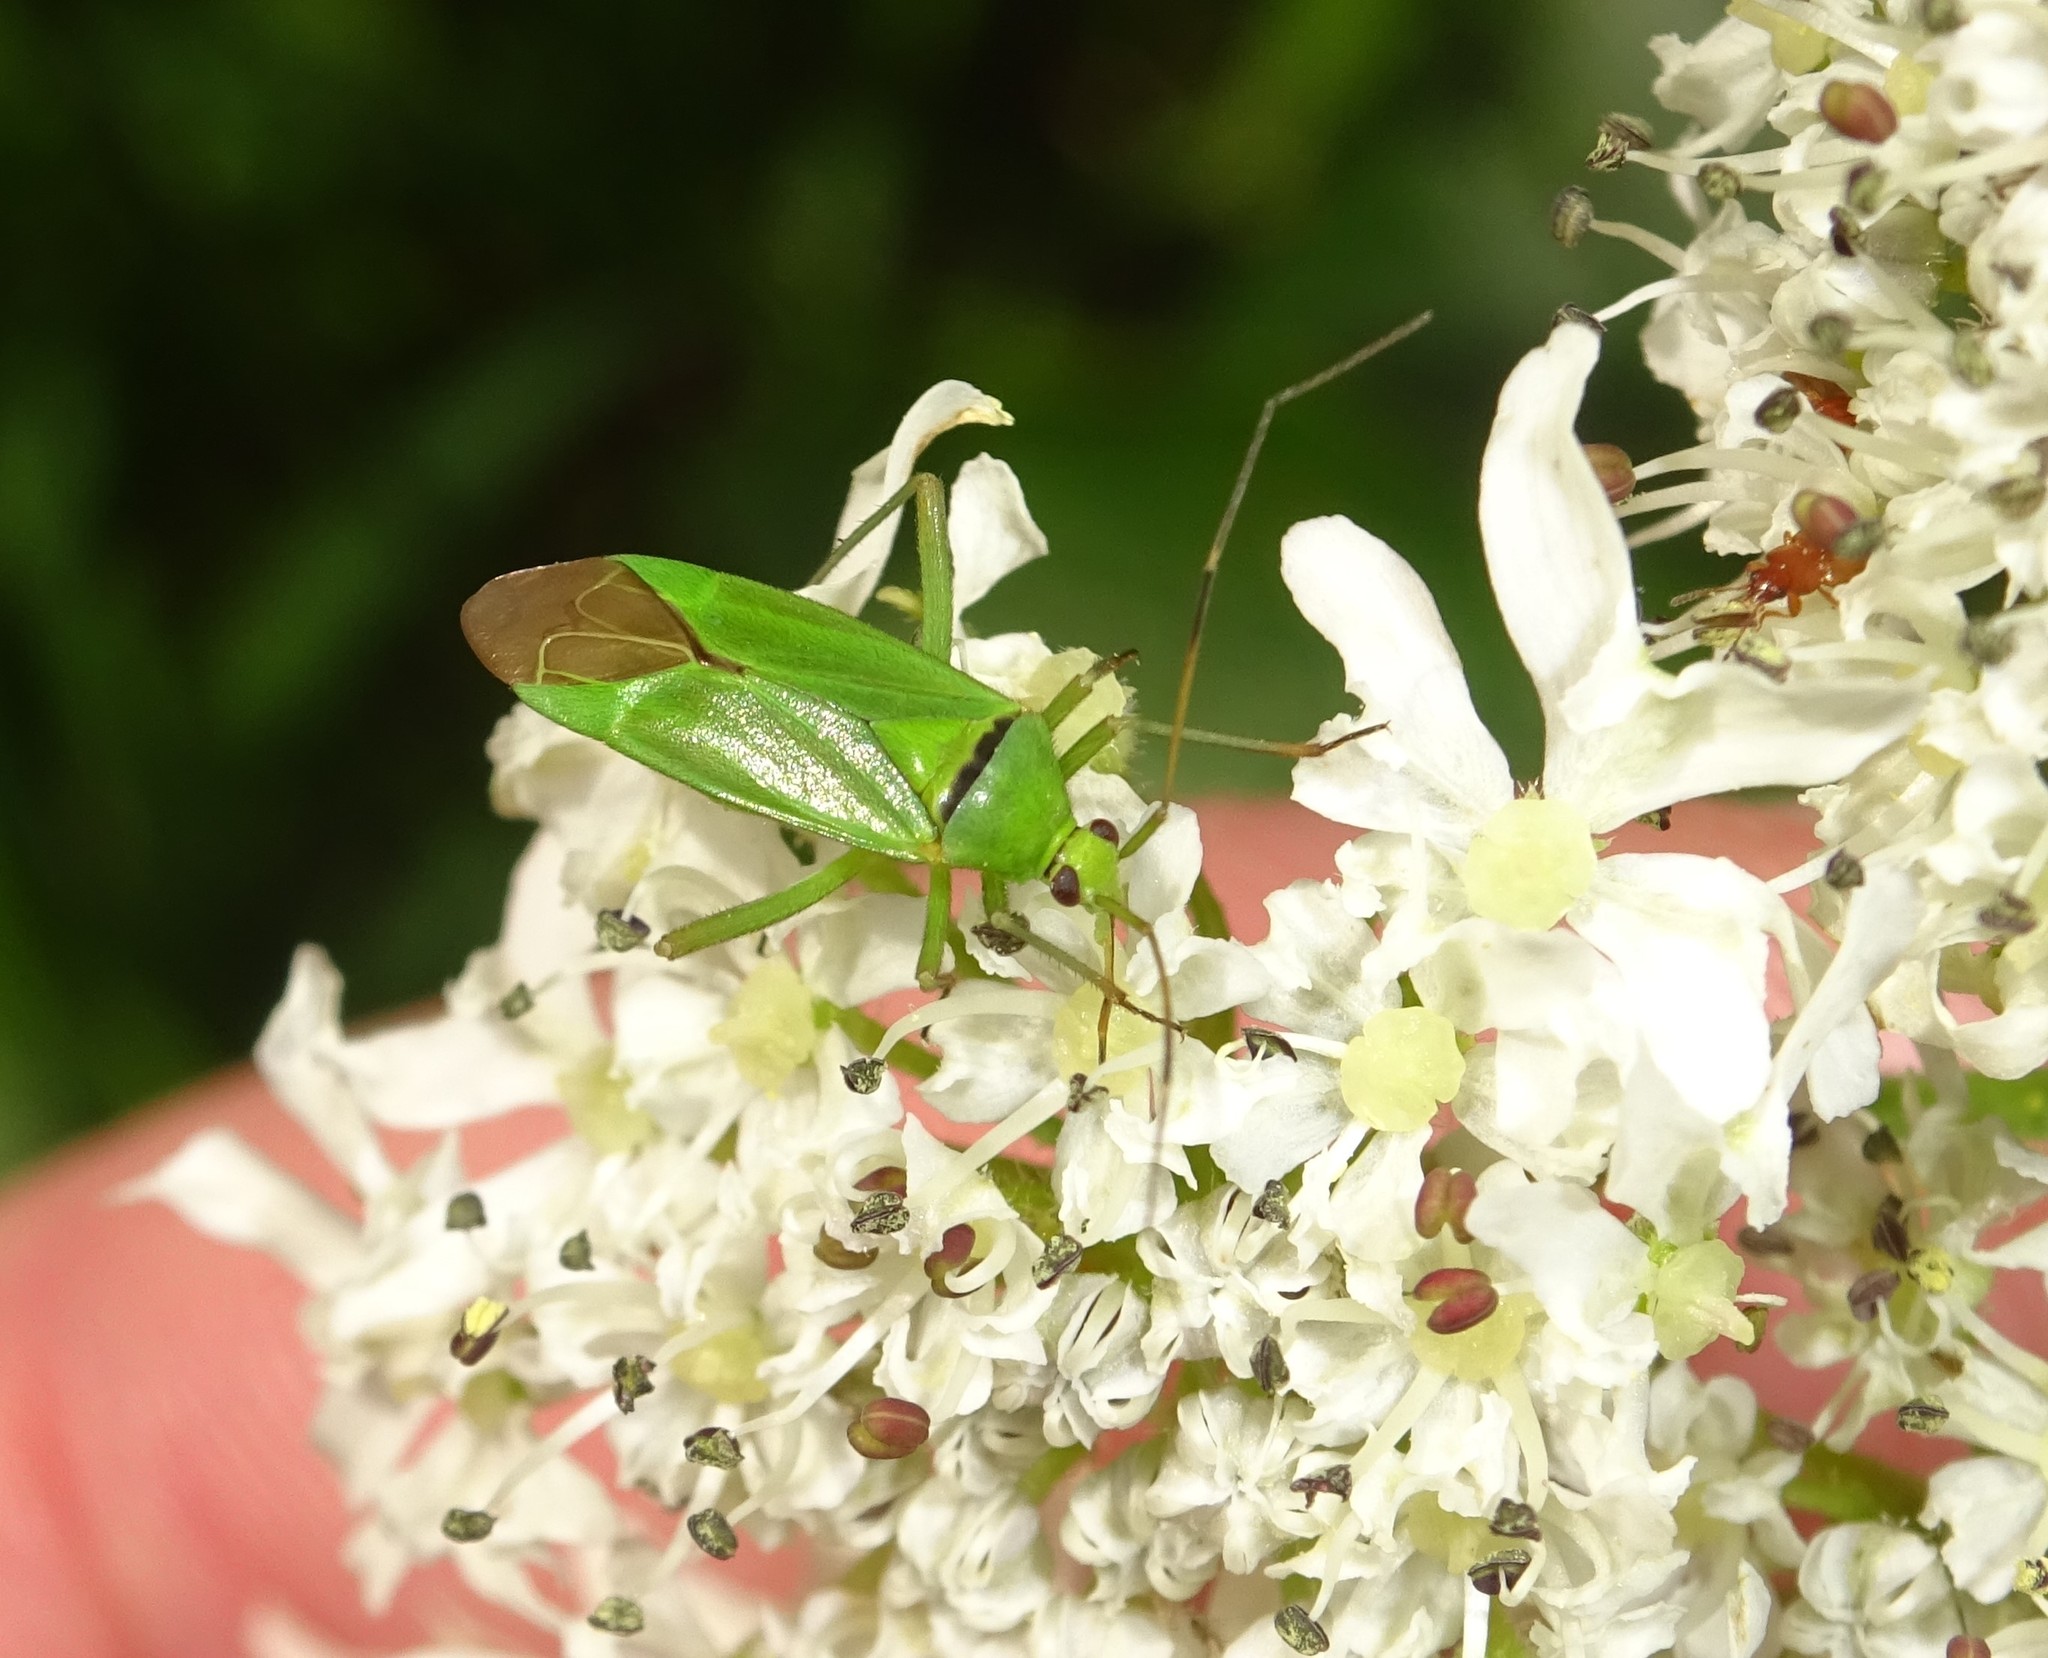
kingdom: Animalia
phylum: Arthropoda
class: Insecta
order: Hemiptera
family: Miridae
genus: Calocoris
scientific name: Calocoris alpestris
